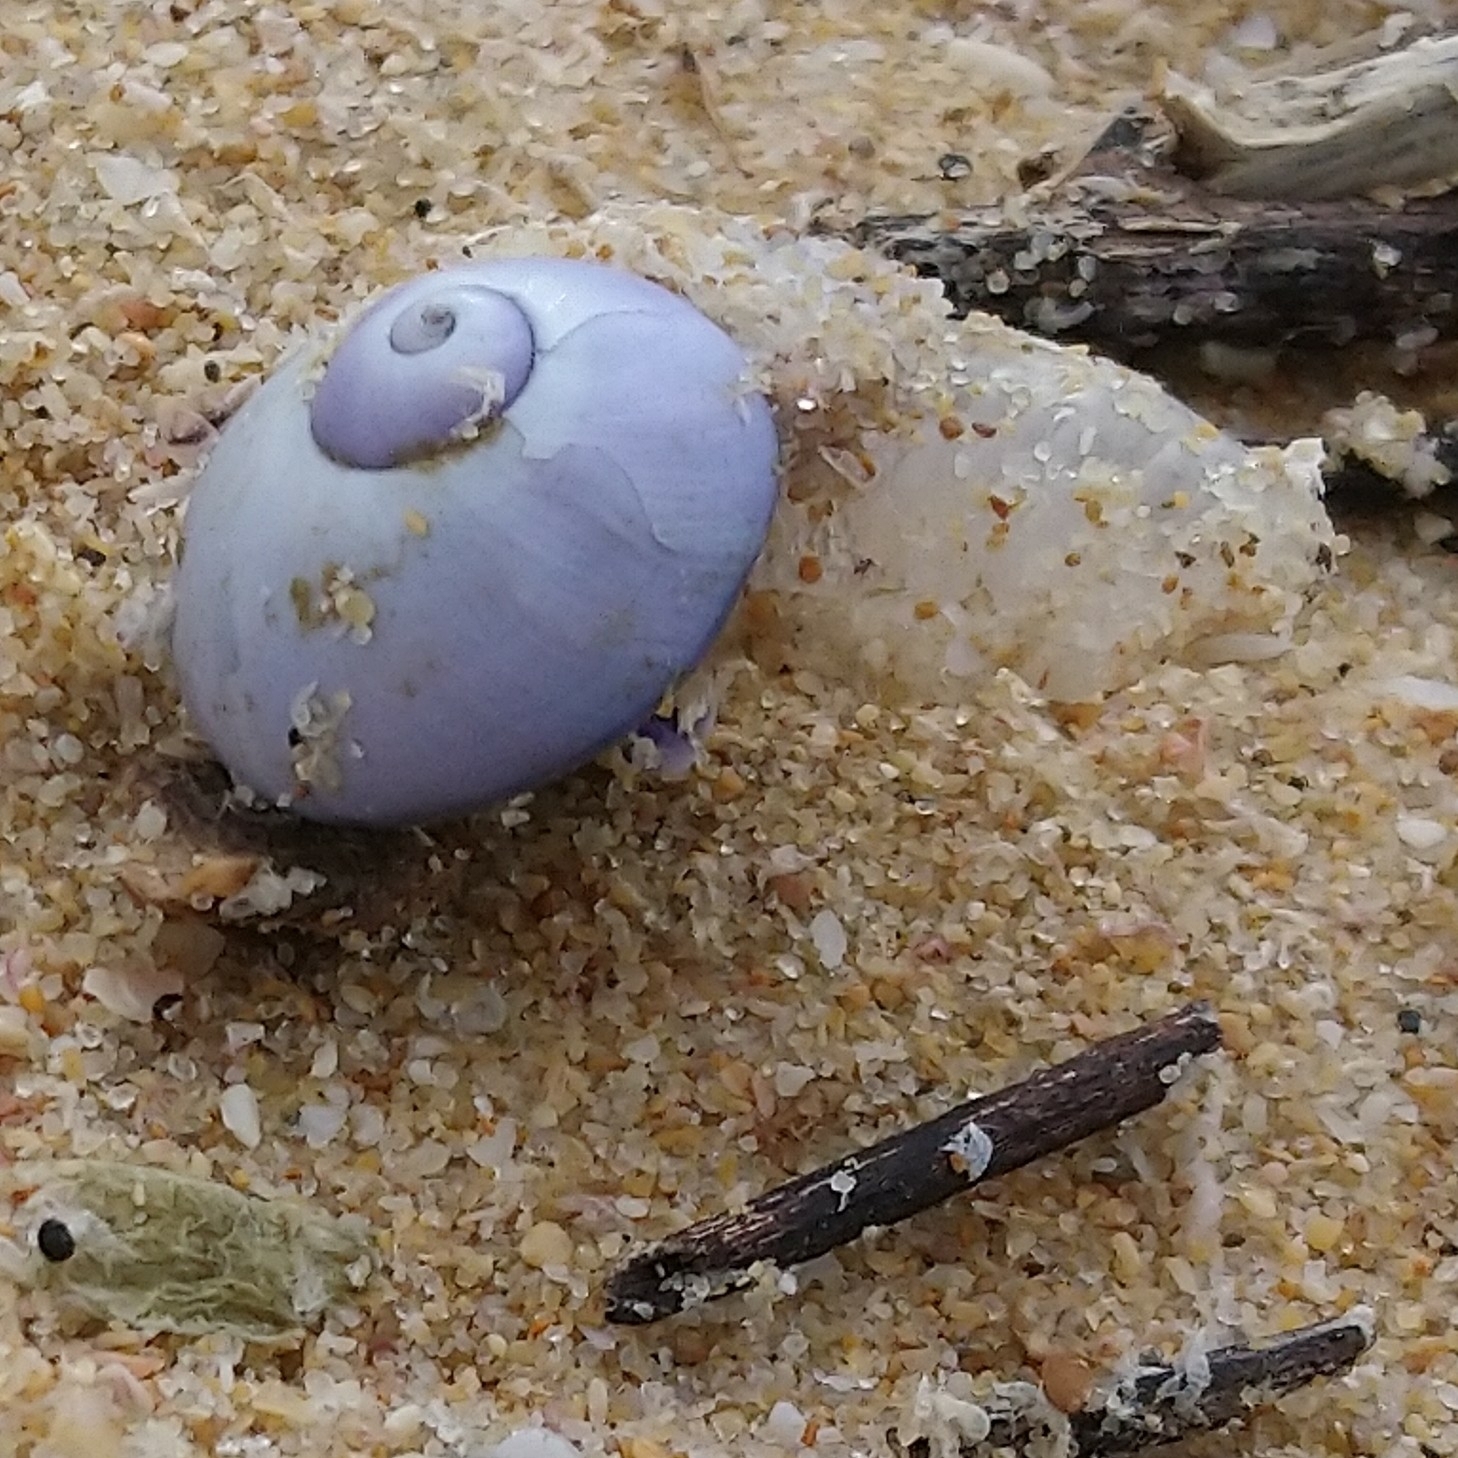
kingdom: Animalia
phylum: Mollusca
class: Gastropoda
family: Epitoniidae
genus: Janthina
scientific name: Janthina janthina
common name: Common janthina
